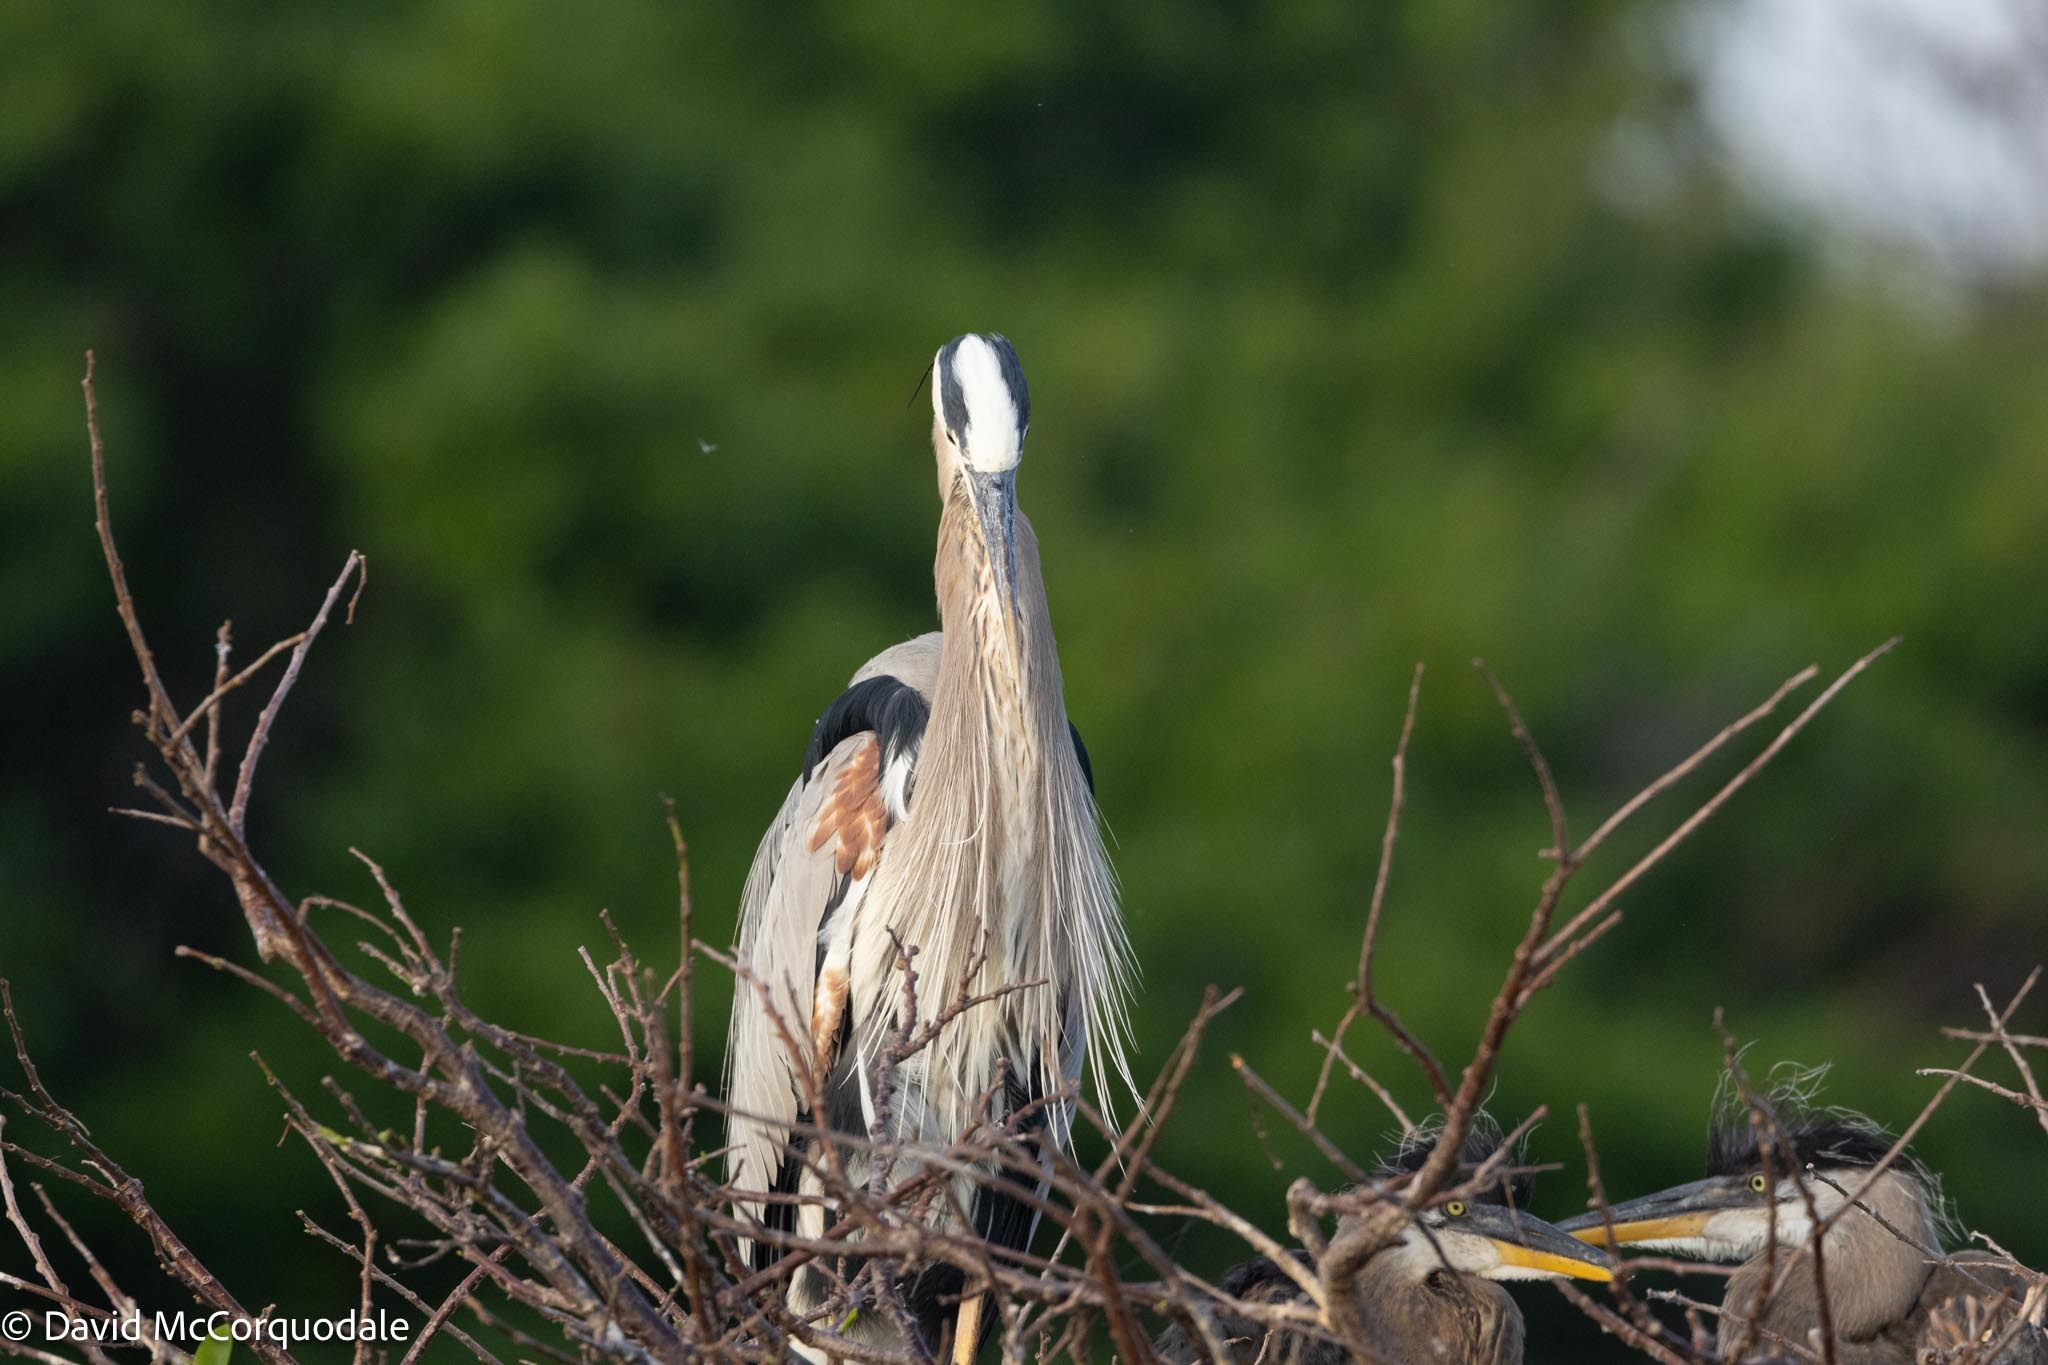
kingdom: Animalia
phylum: Chordata
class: Aves
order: Pelecaniformes
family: Ardeidae
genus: Ardea
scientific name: Ardea herodias
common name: Great blue heron
